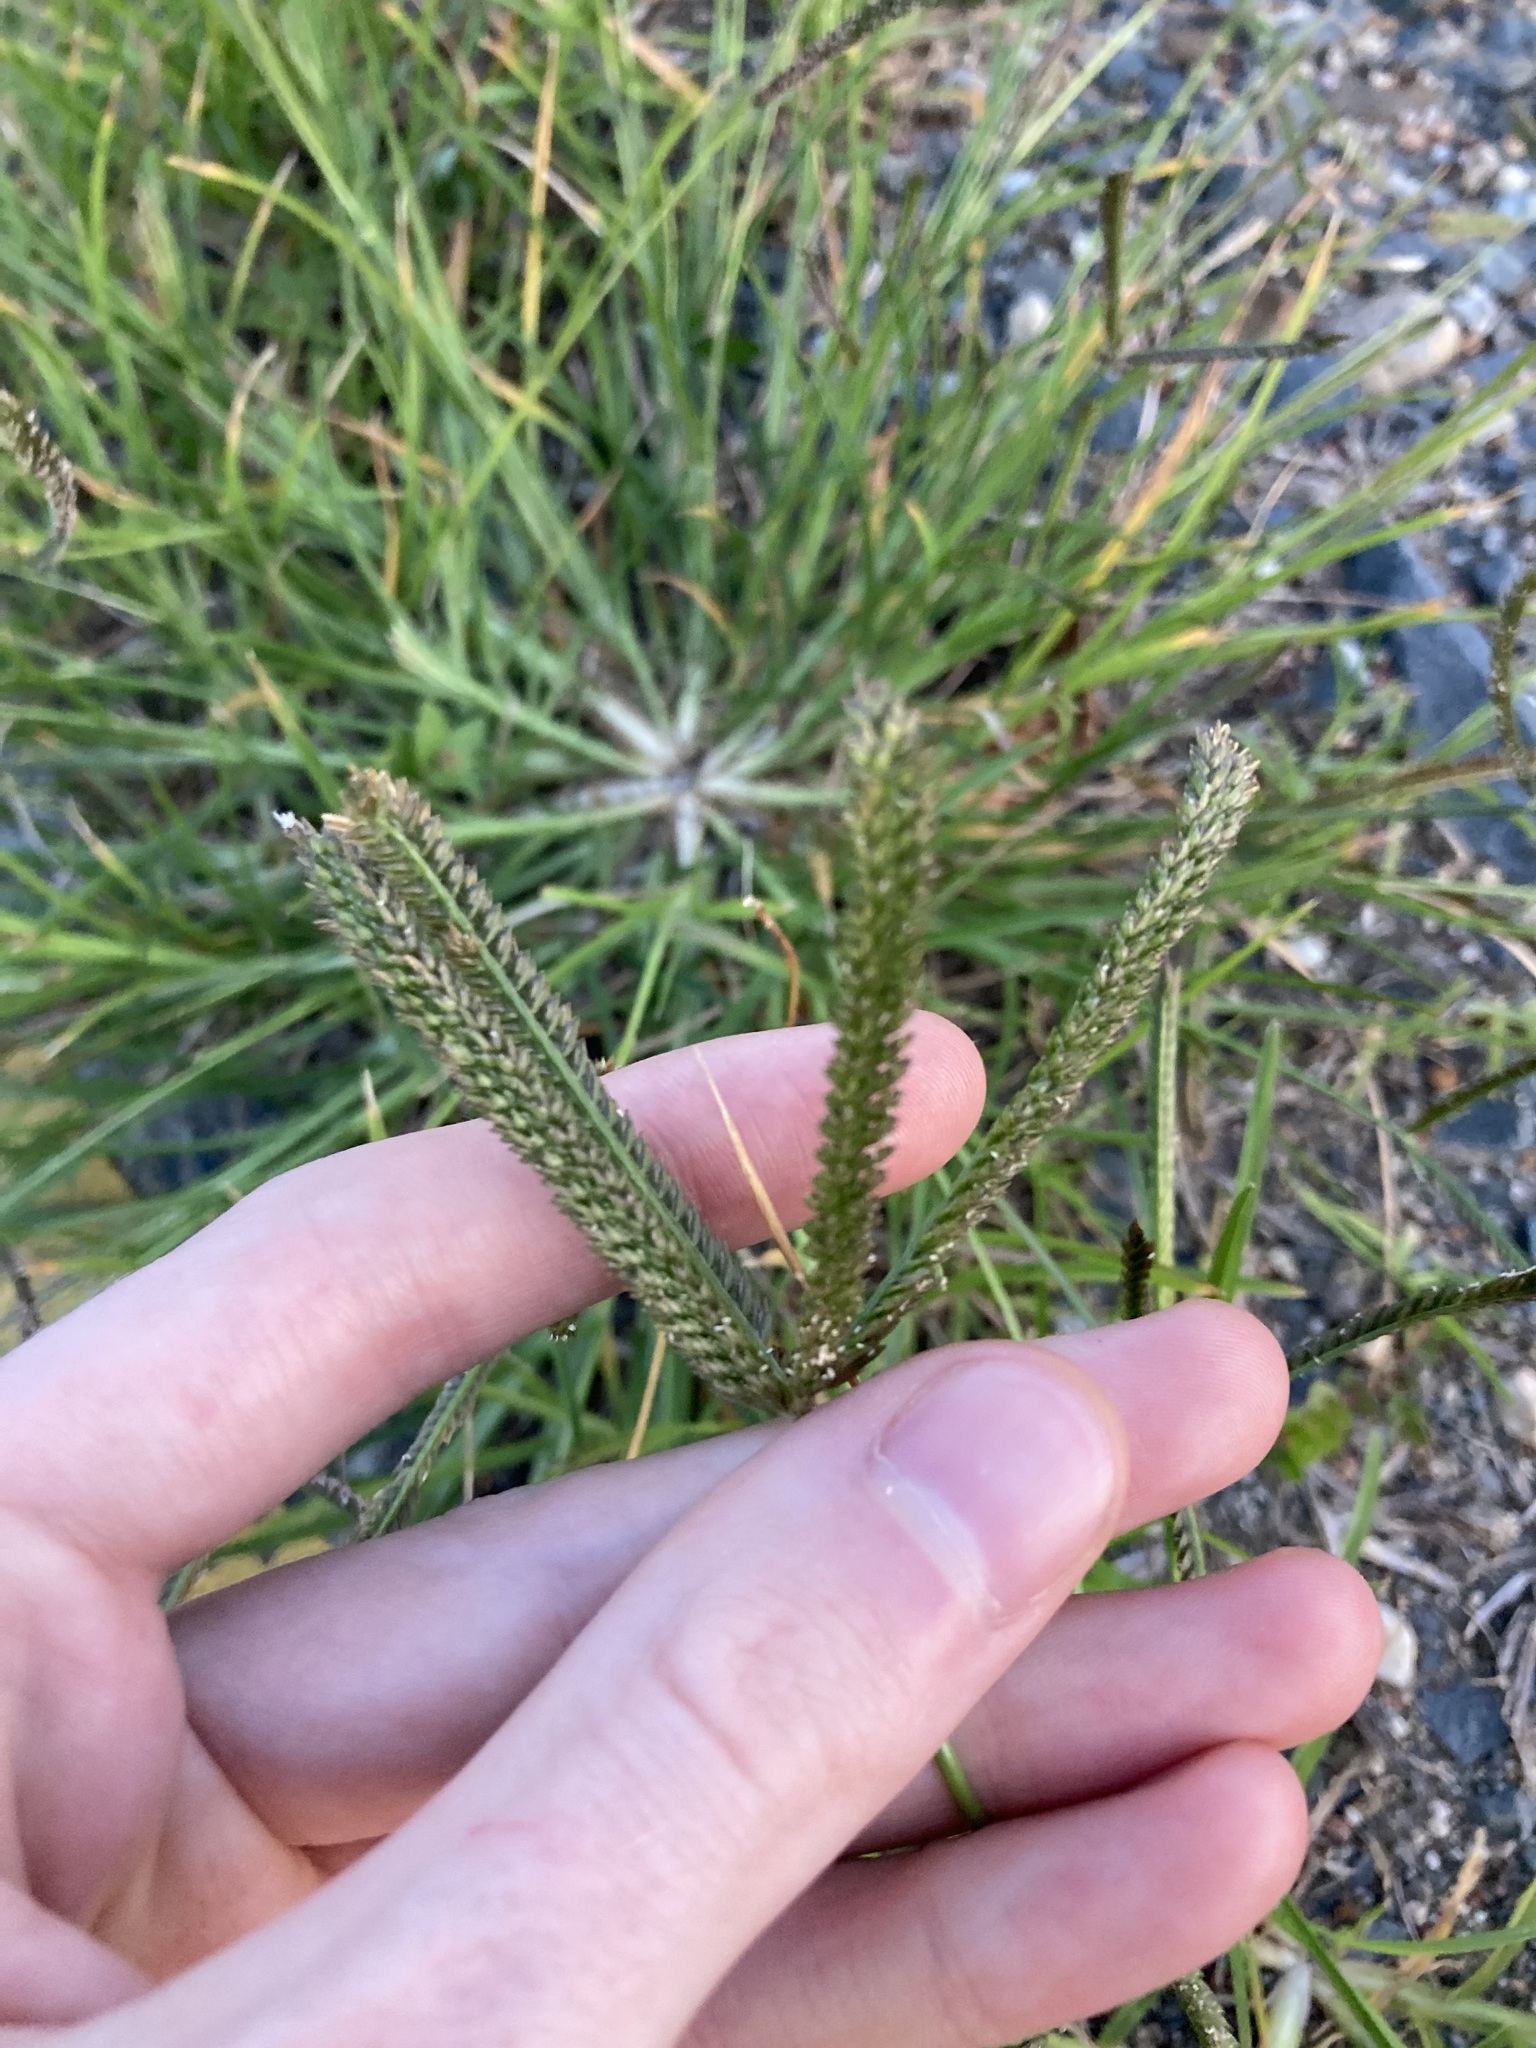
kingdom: Plantae
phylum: Tracheophyta
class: Liliopsida
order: Poales
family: Poaceae
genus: Eleusine
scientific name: Eleusine indica
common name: Yard-grass
